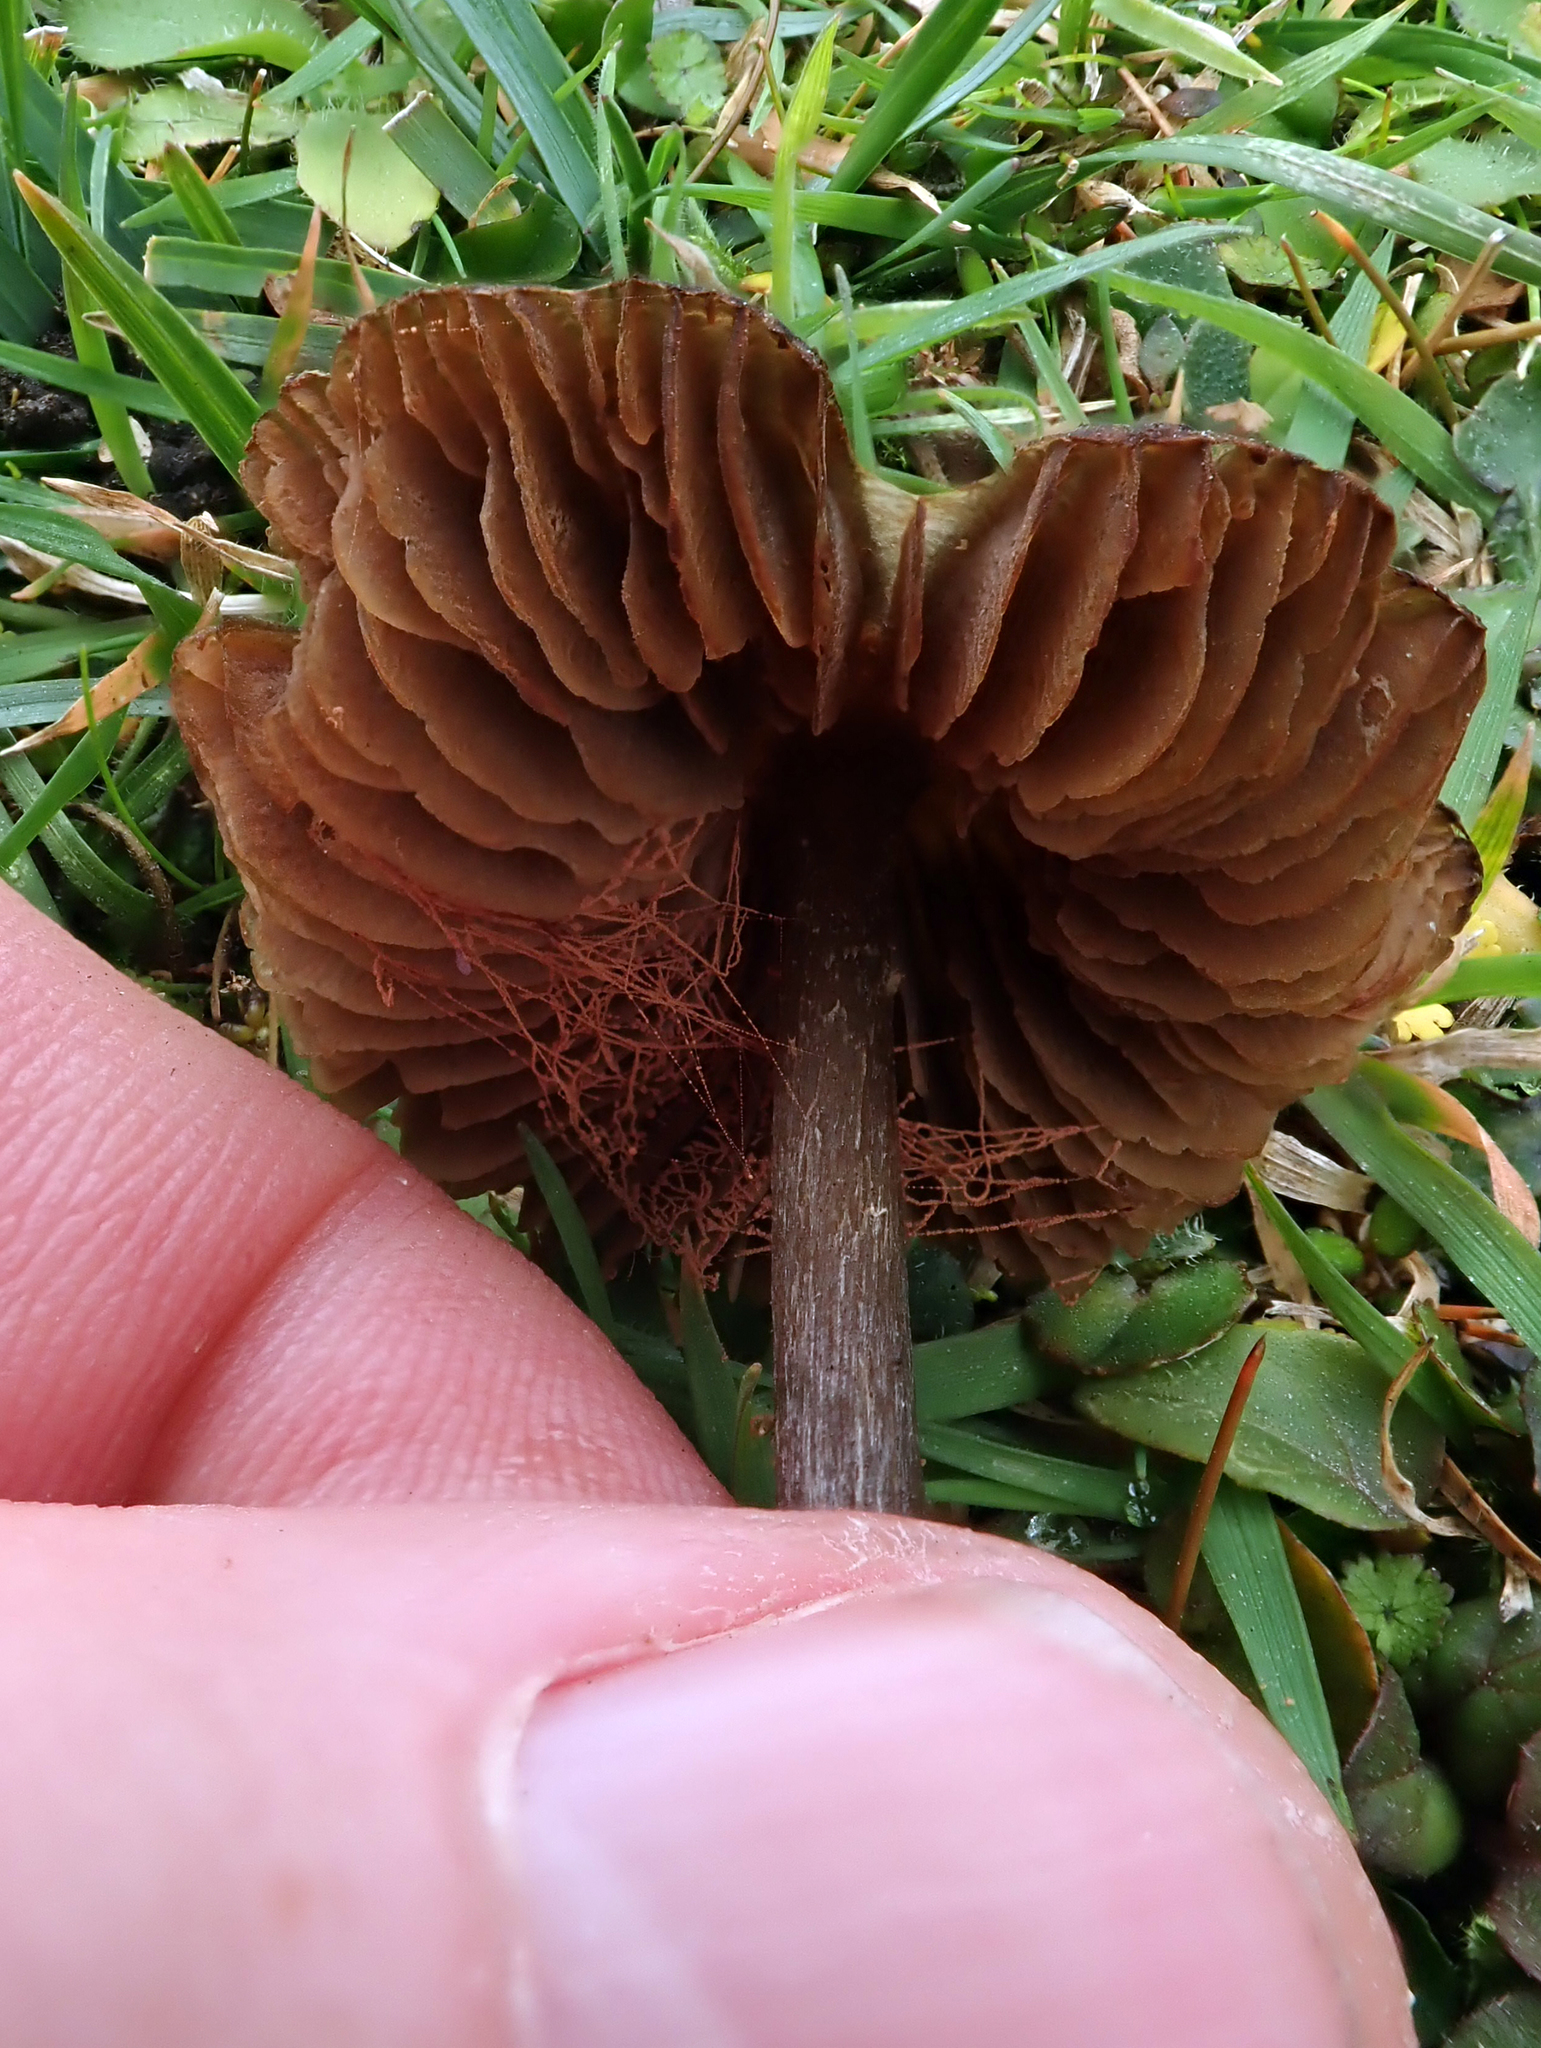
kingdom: Fungi
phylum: Basidiomycota
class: Agaricomycetes
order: Agaricales
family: Entolomataceae
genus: Entoloma
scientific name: Entoloma perzonatum
